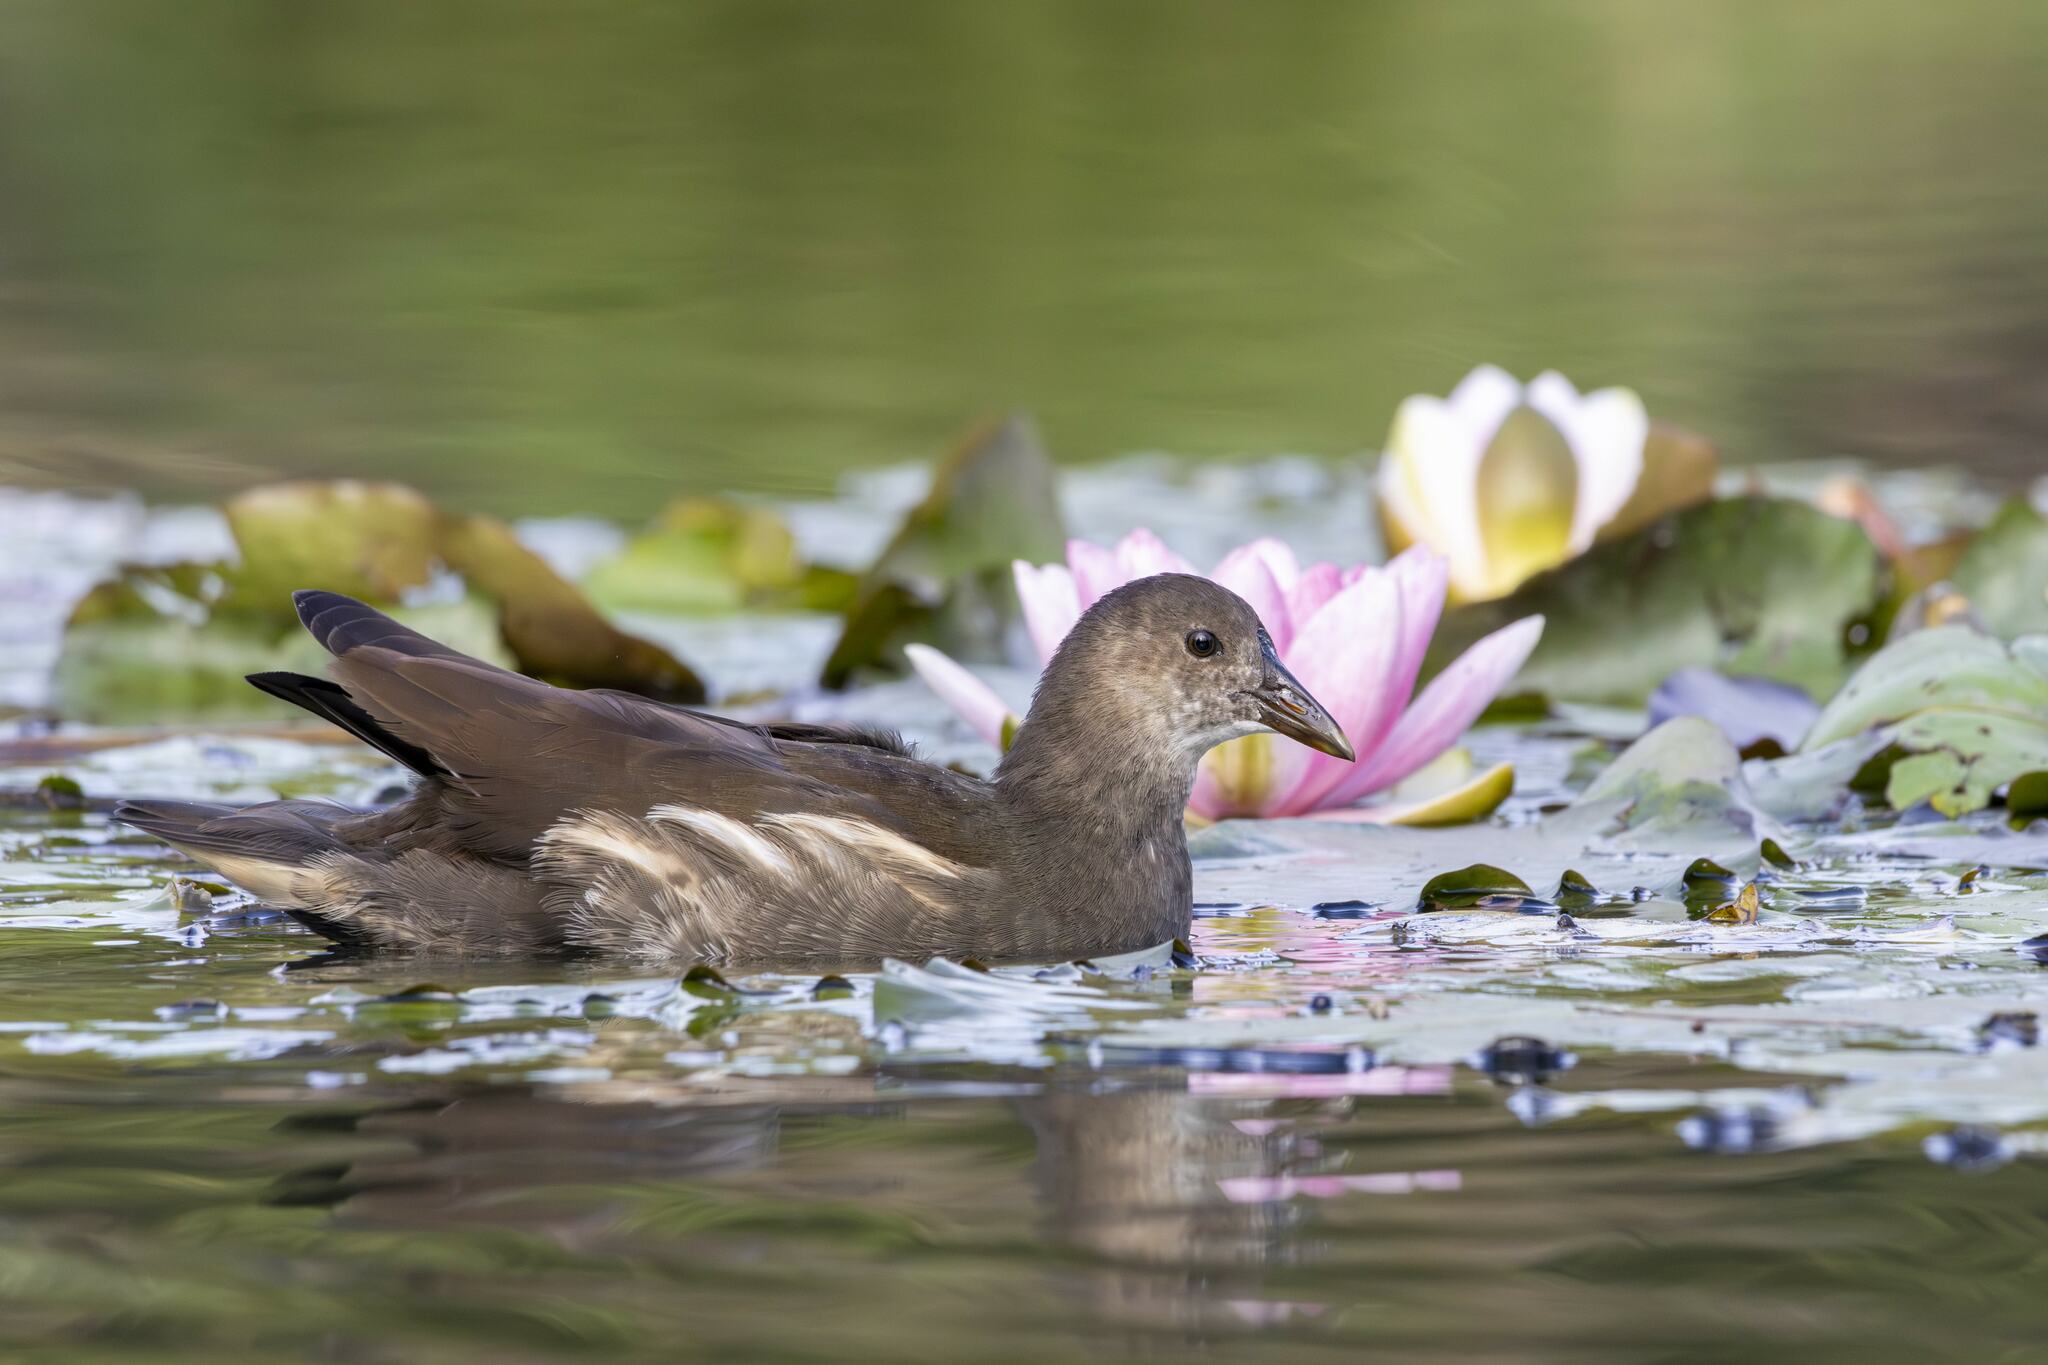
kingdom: Animalia
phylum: Chordata
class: Aves
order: Gruiformes
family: Rallidae
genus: Gallinula
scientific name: Gallinula chloropus
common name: Common moorhen
